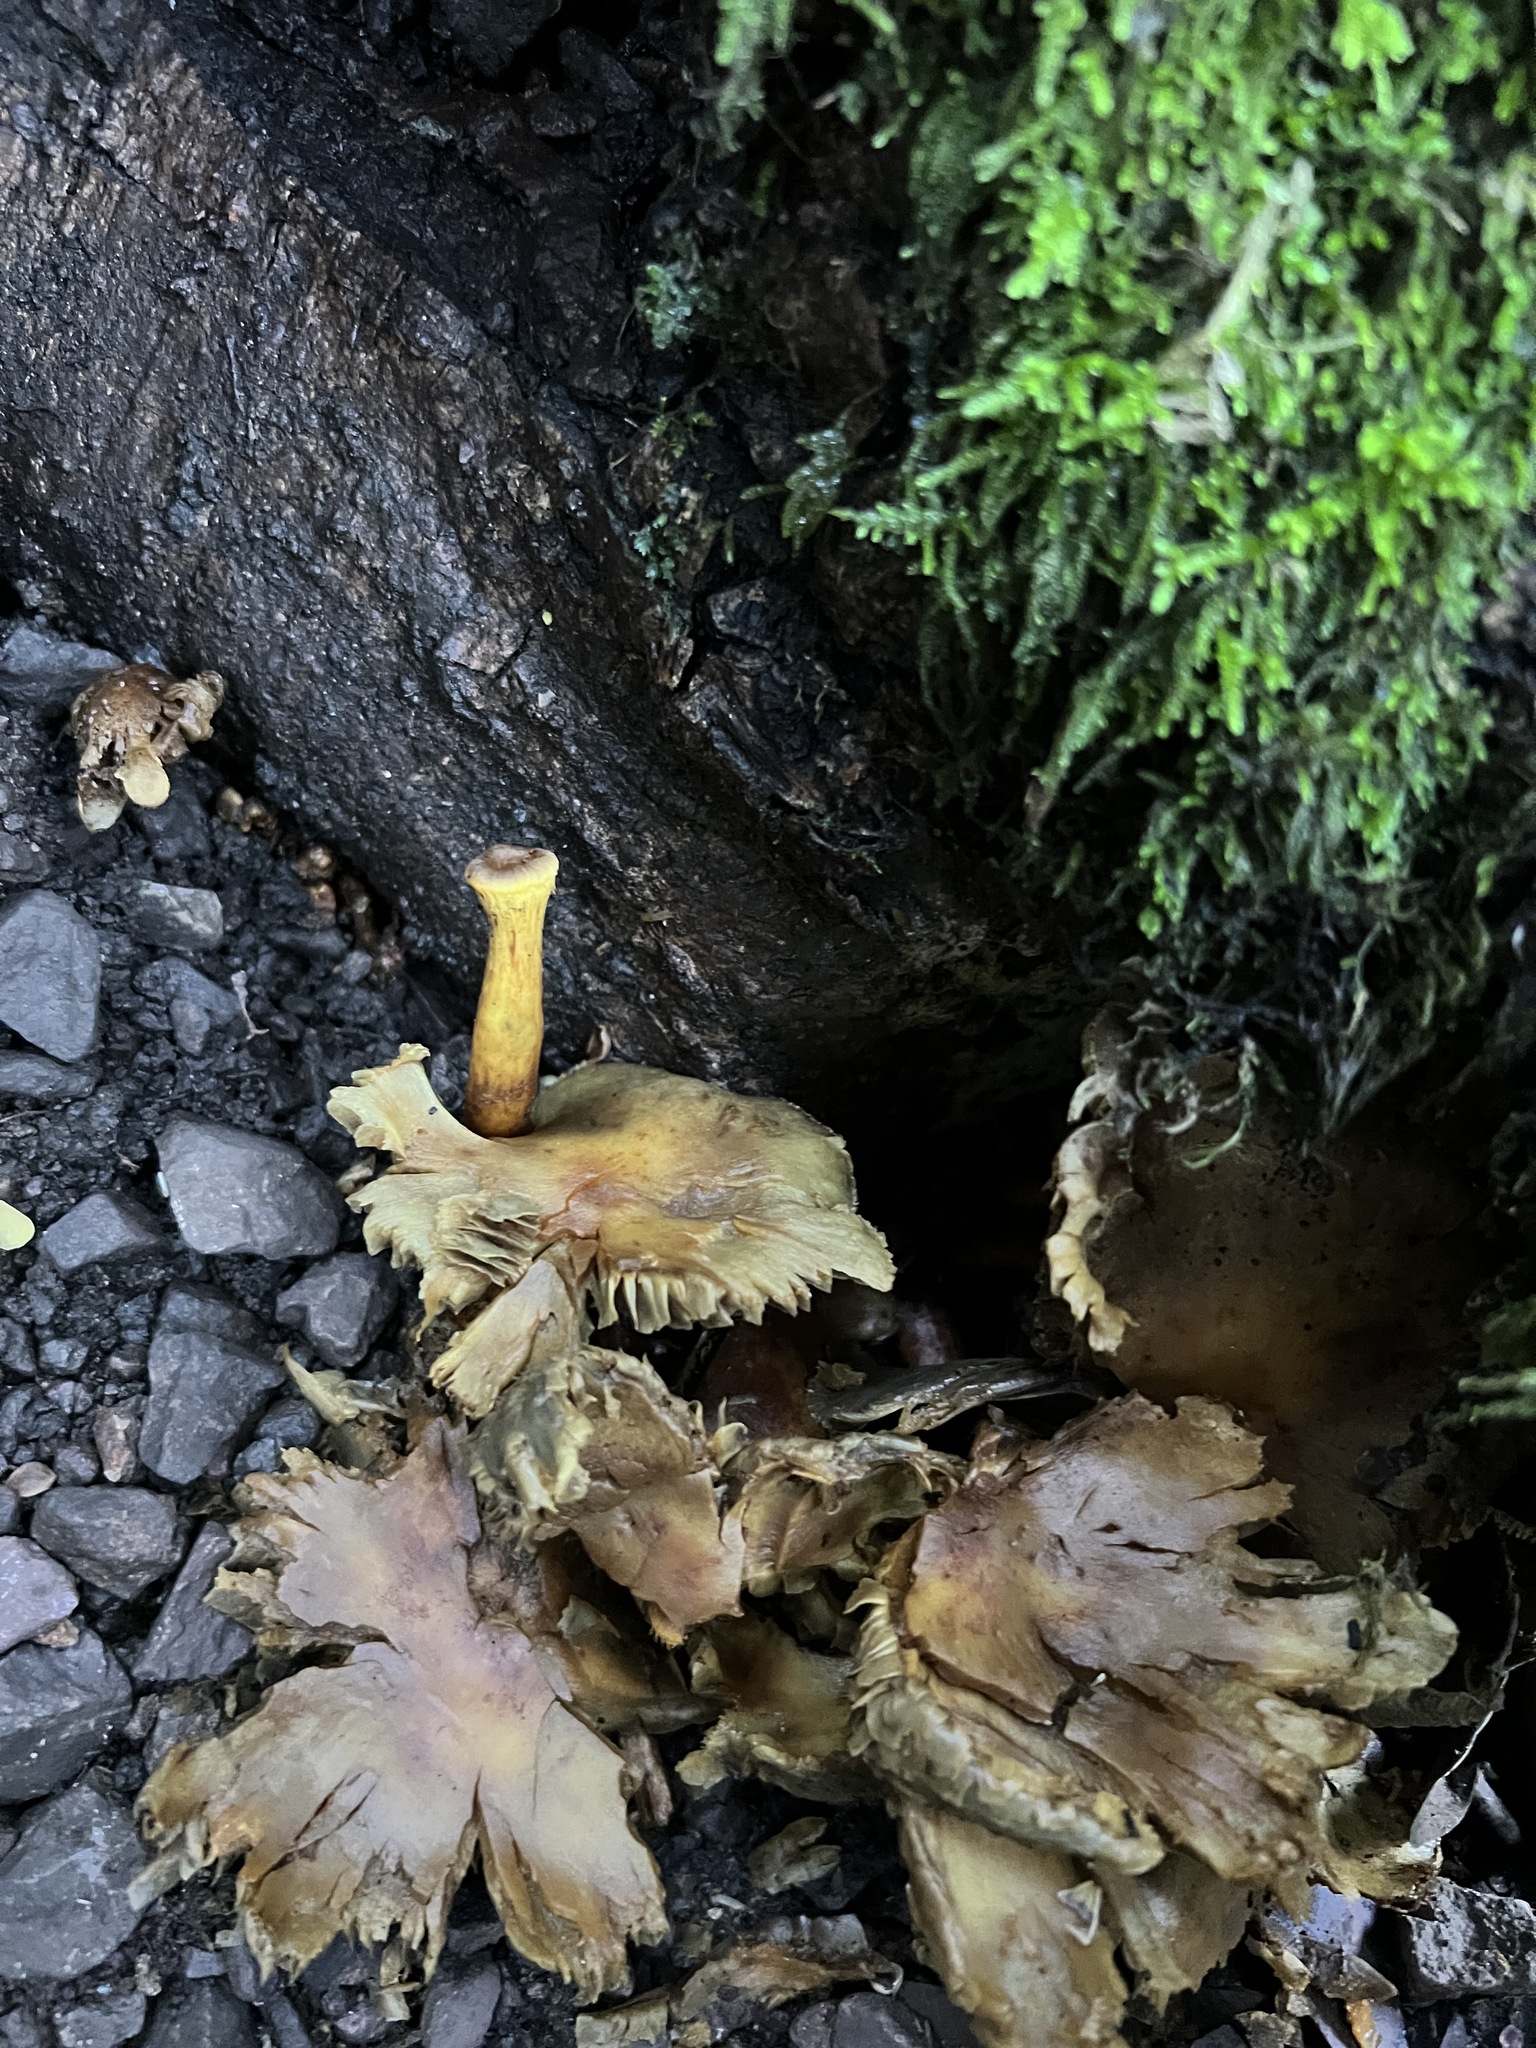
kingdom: Fungi
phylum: Basidiomycota
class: Agaricomycetes
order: Agaricales
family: Strophariaceae
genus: Hypholoma
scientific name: Hypholoma fasciculare
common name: Sulphur tuft
